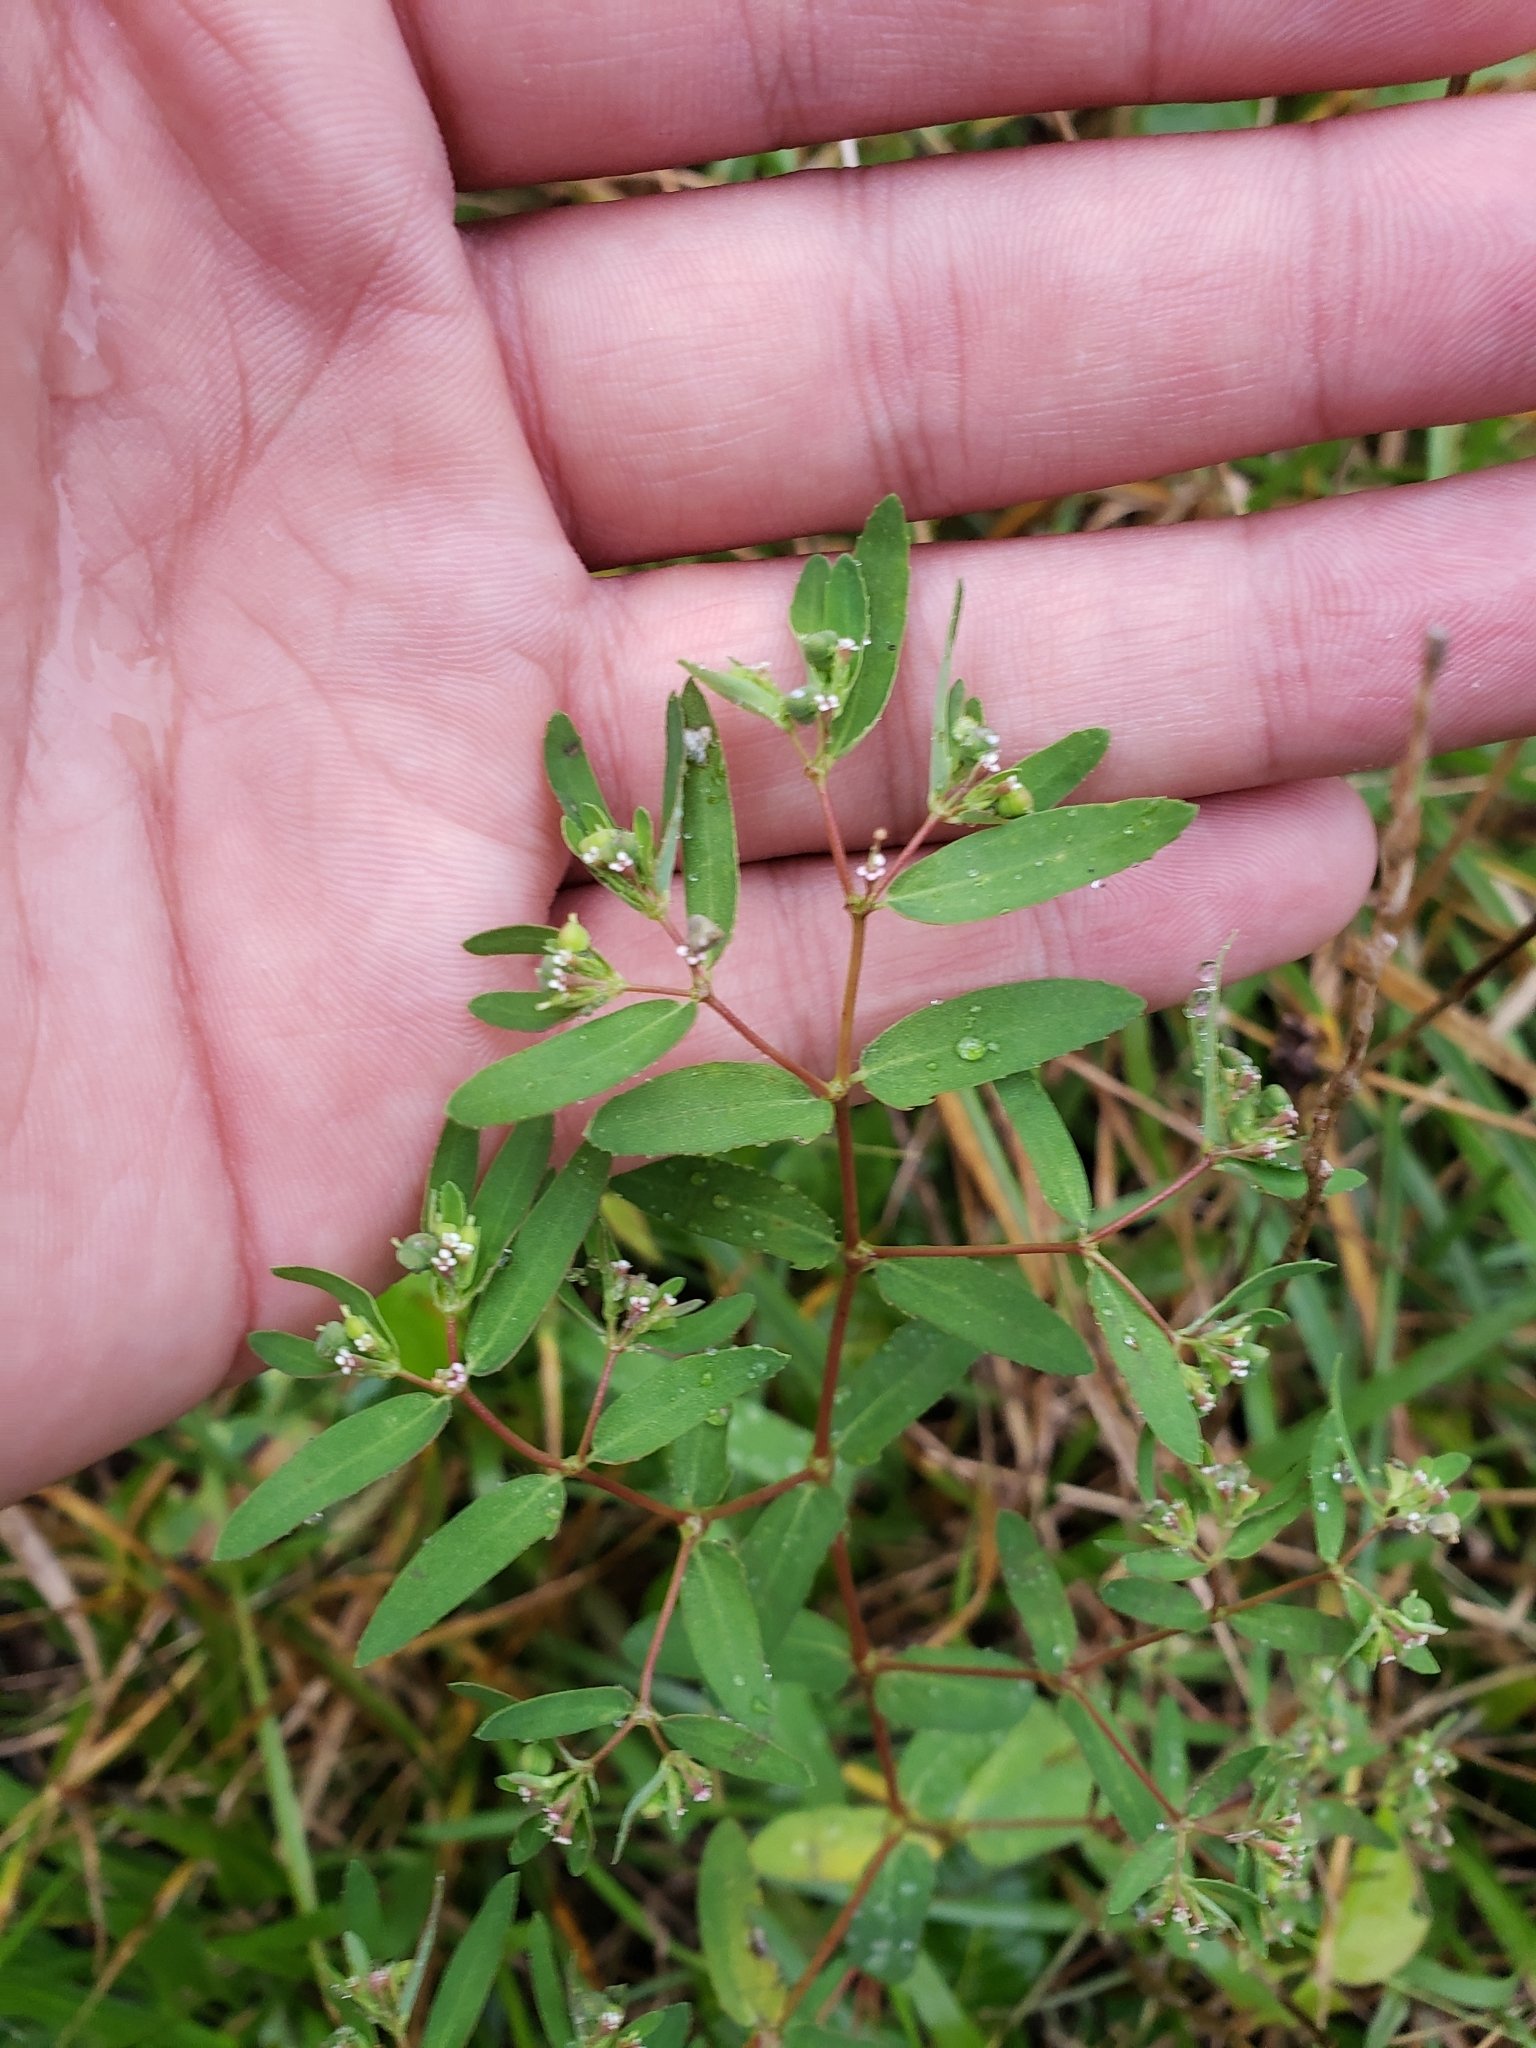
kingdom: Plantae
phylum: Tracheophyta
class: Magnoliopsida
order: Malpighiales
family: Euphorbiaceae
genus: Euphorbia
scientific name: Euphorbia nutans
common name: Eyebane
